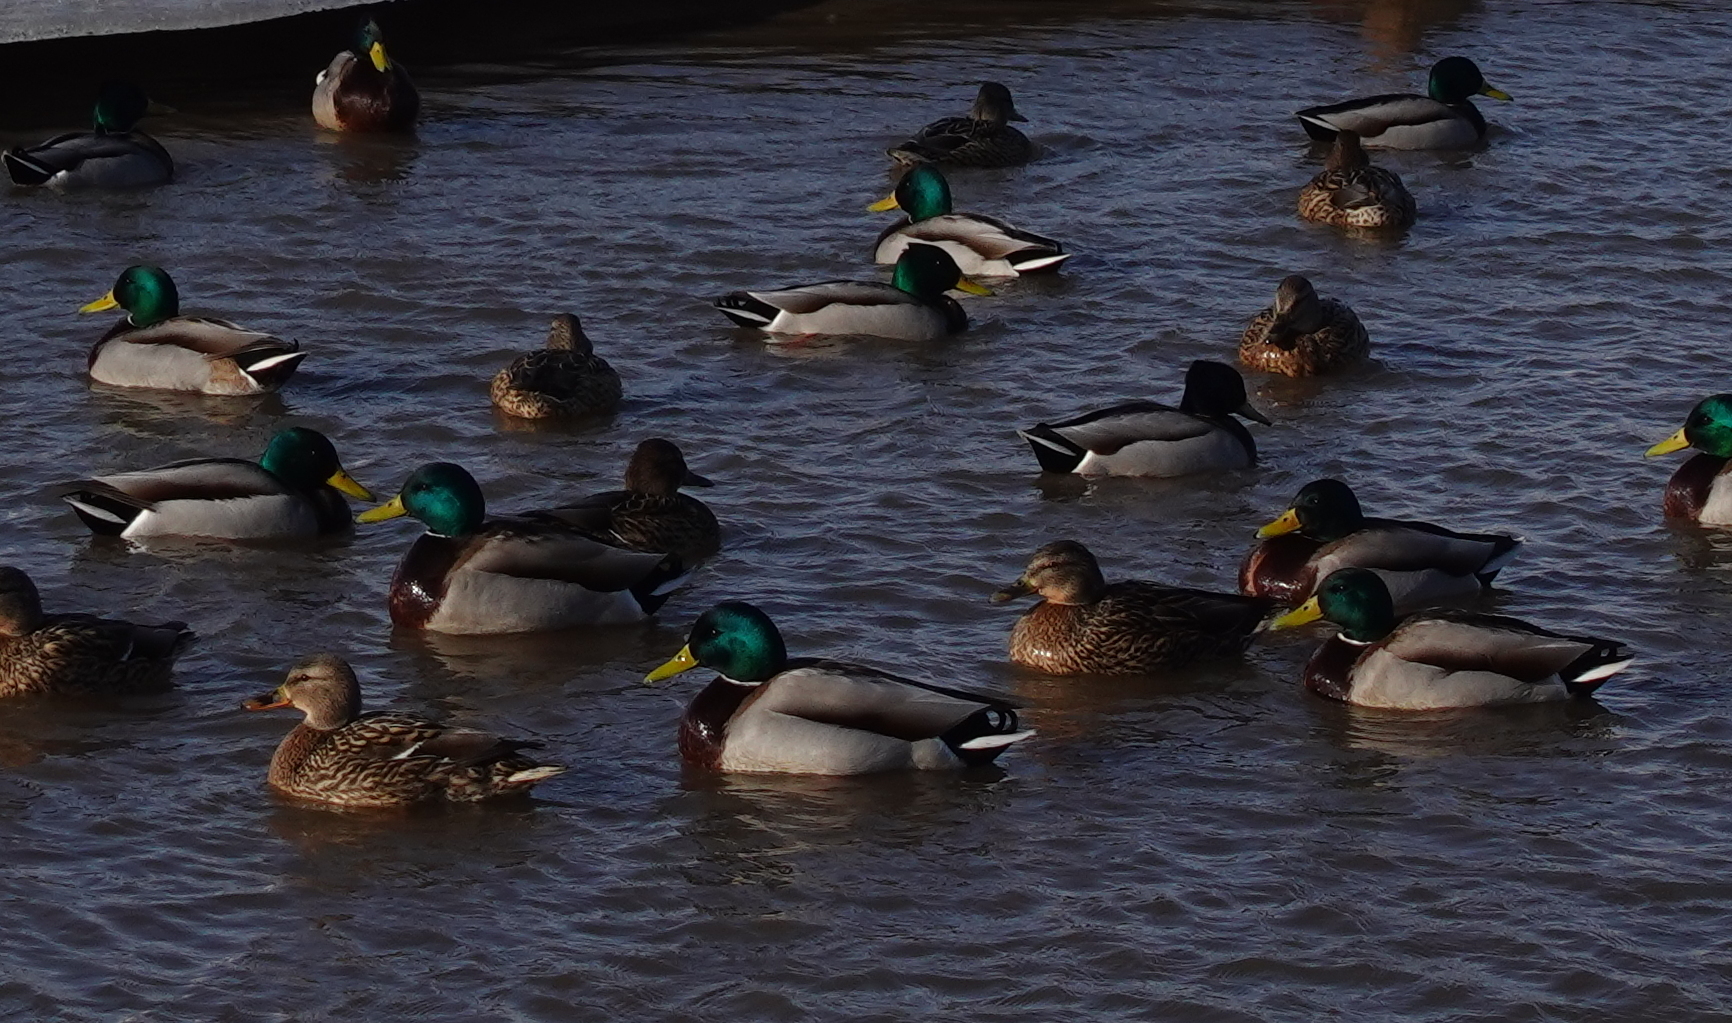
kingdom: Animalia
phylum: Chordata
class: Aves
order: Anseriformes
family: Anatidae
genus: Anas
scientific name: Anas platyrhynchos
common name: Mallard
